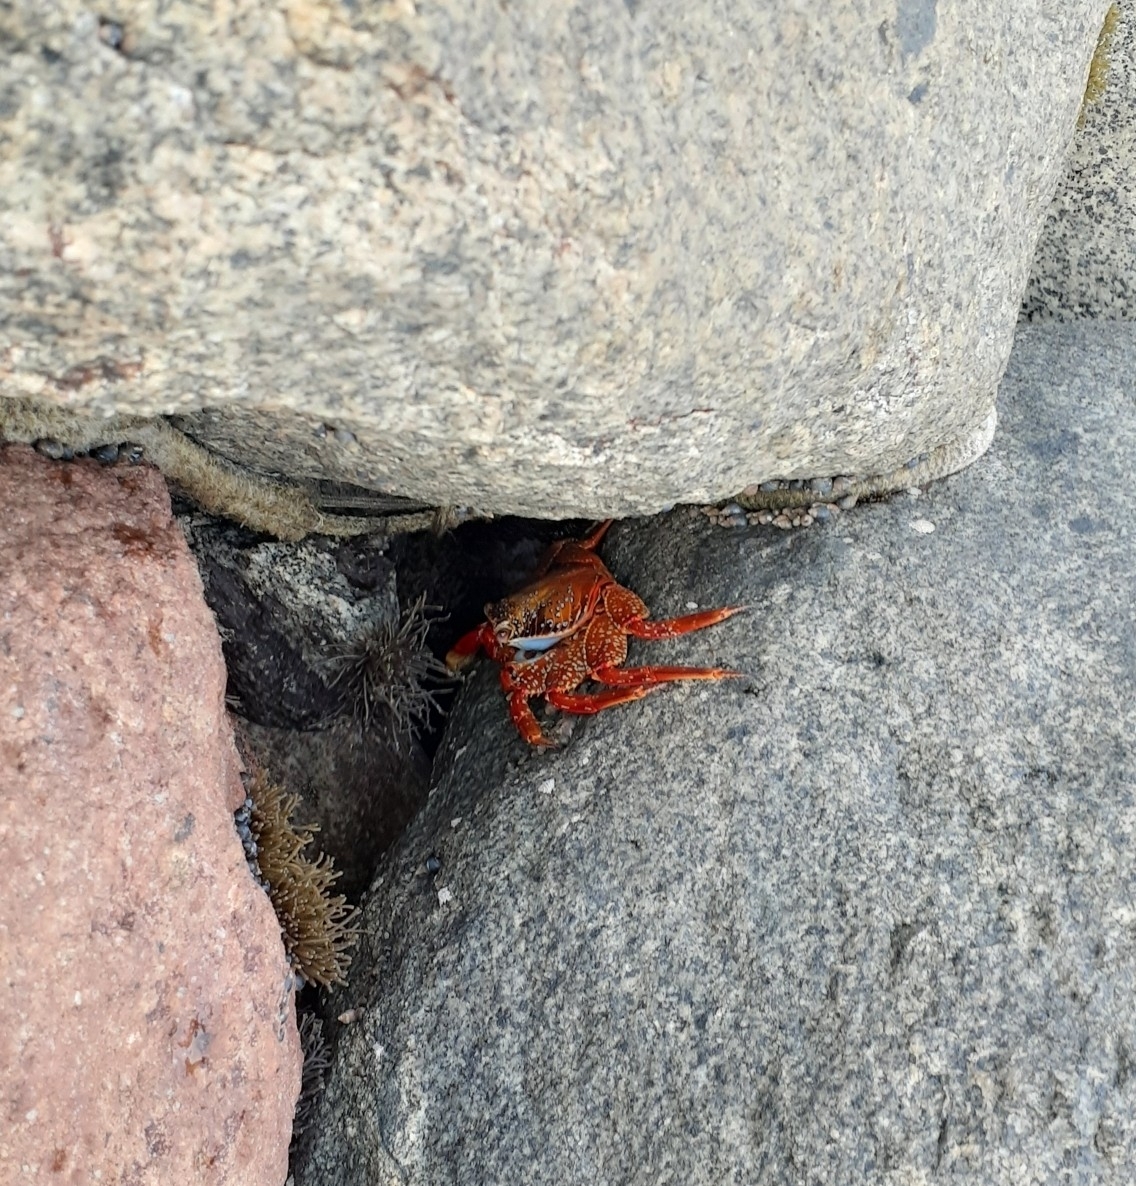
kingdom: Animalia
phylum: Arthropoda
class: Malacostraca
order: Decapoda
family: Grapsidae
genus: Grapsus
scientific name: Grapsus grapsus
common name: Sally lightfoot
